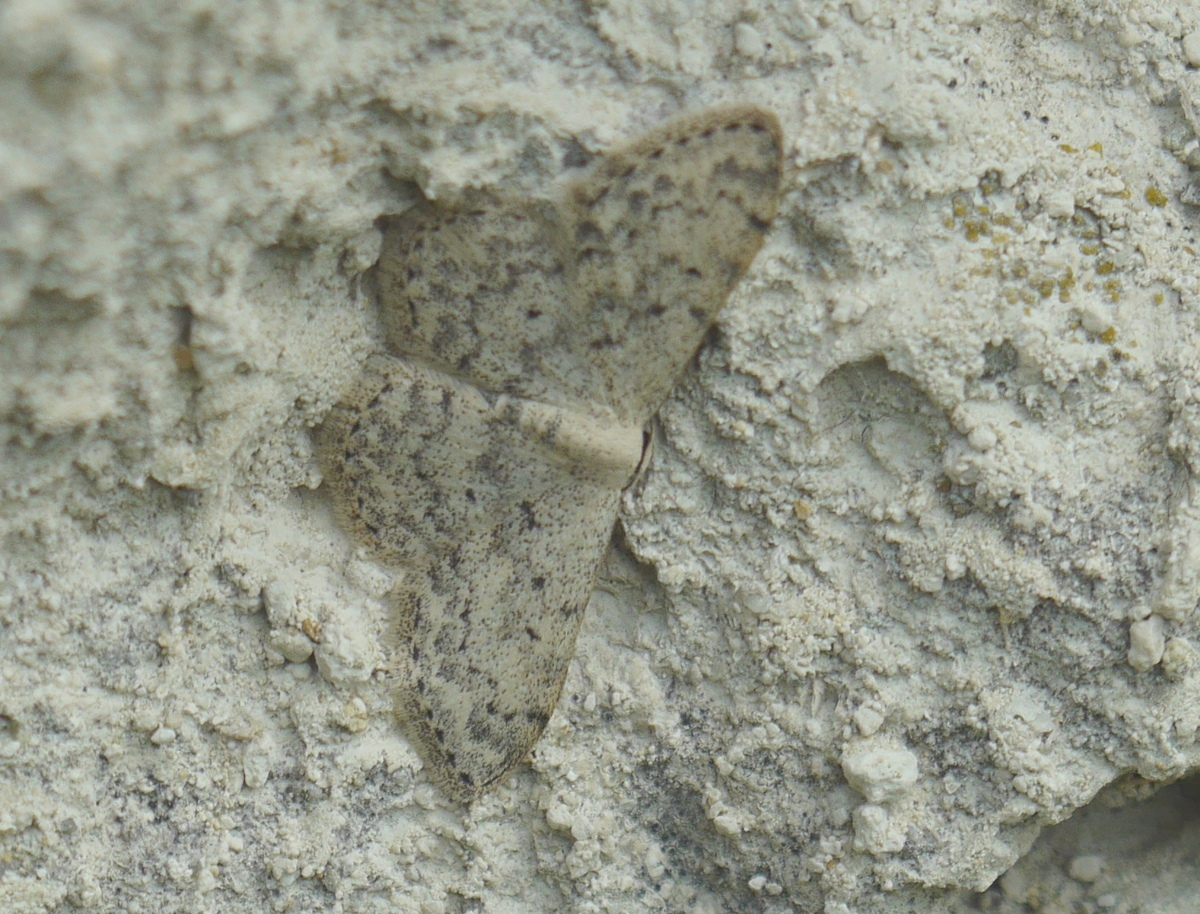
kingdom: Animalia
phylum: Arthropoda
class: Insecta
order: Lepidoptera
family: Geometridae
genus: Scopula
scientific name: Scopula marginepunctata
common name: Mullein wave
